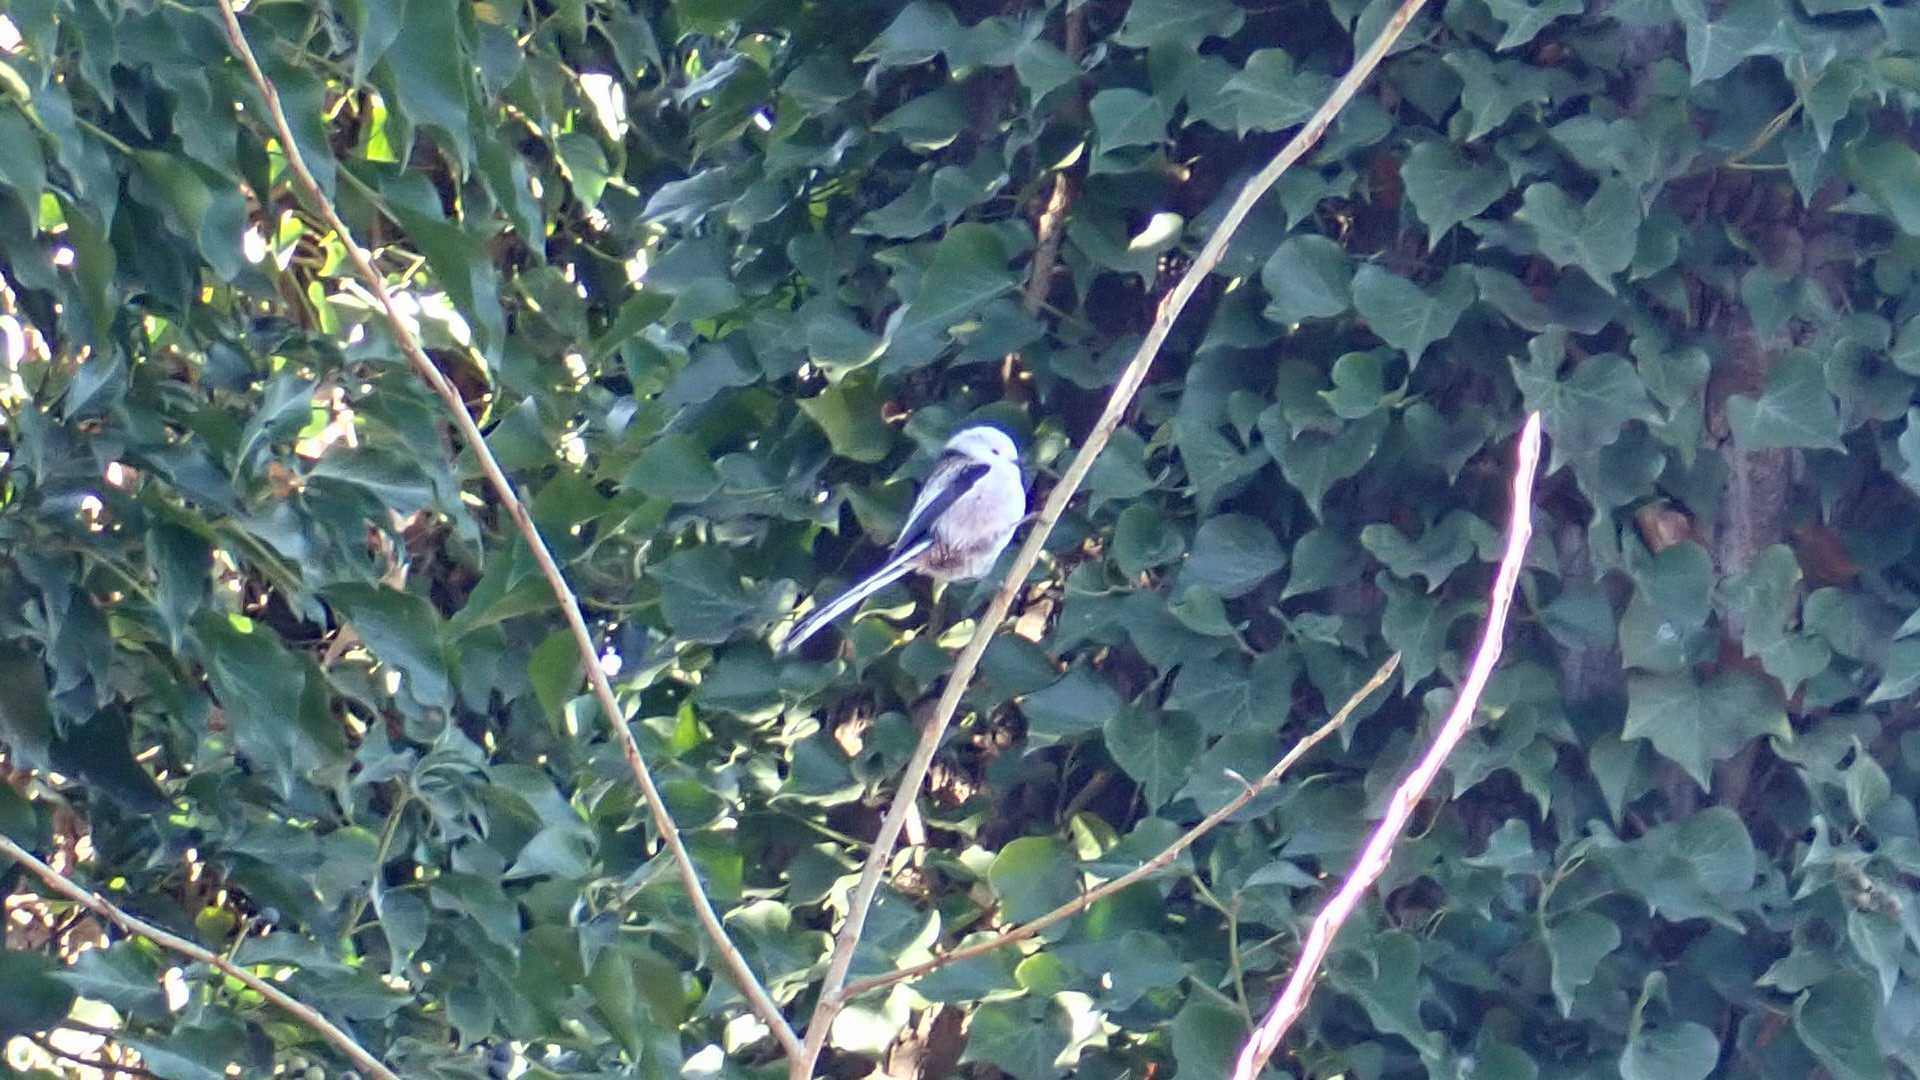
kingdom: Animalia
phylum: Chordata
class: Aves
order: Passeriformes
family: Aegithalidae
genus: Aegithalos
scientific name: Aegithalos caudatus
